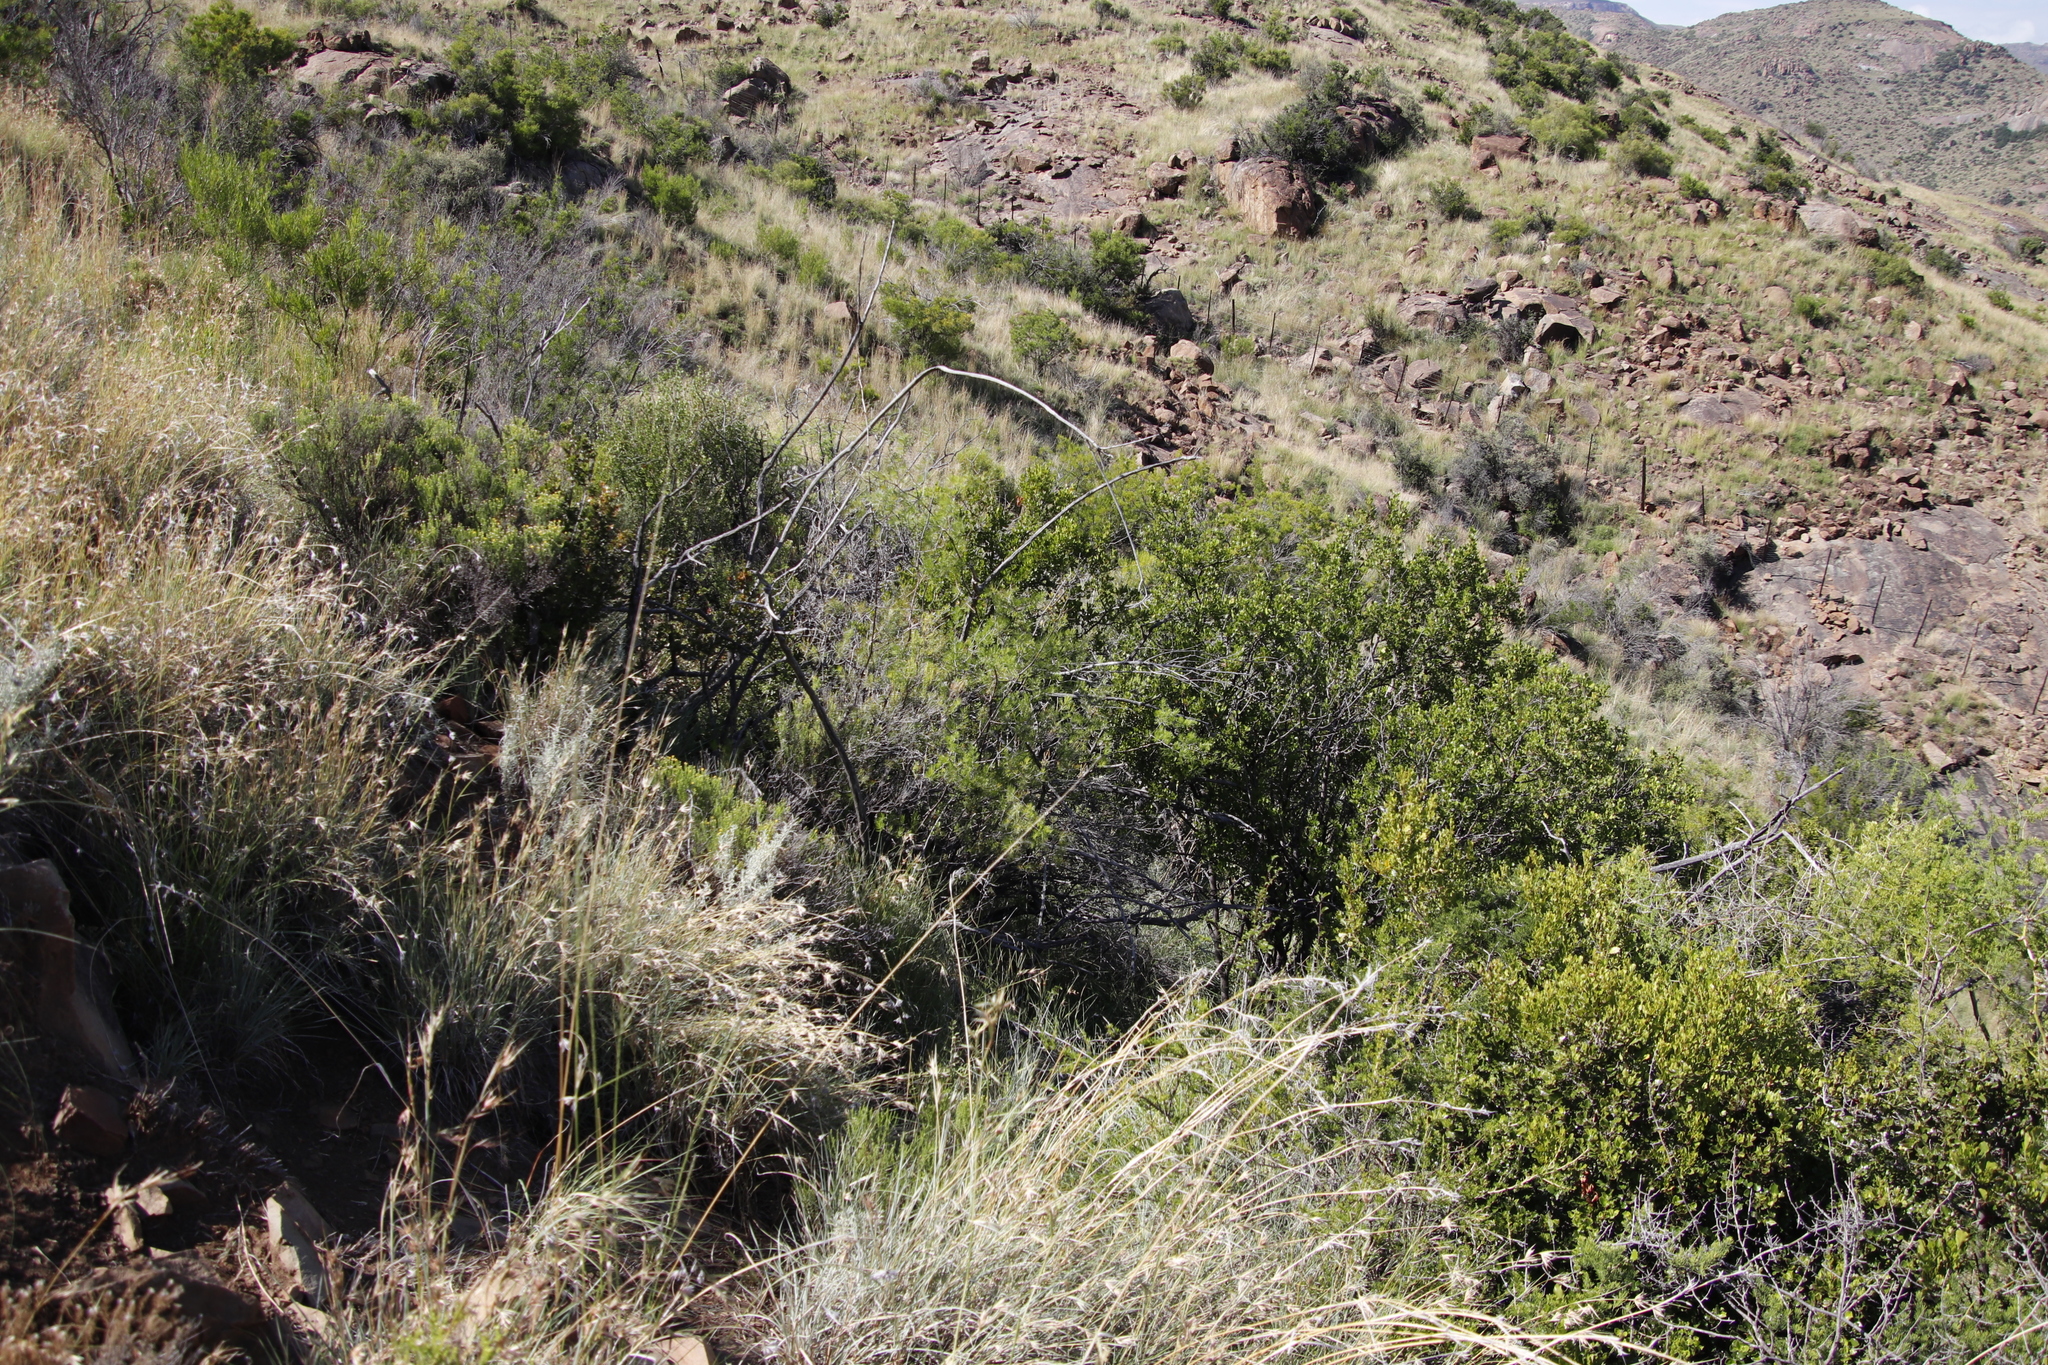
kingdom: Plantae
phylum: Tracheophyta
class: Liliopsida
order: Asparagales
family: Asparagaceae
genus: Asparagus
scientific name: Asparagus africanus
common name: Asparagus-fern
